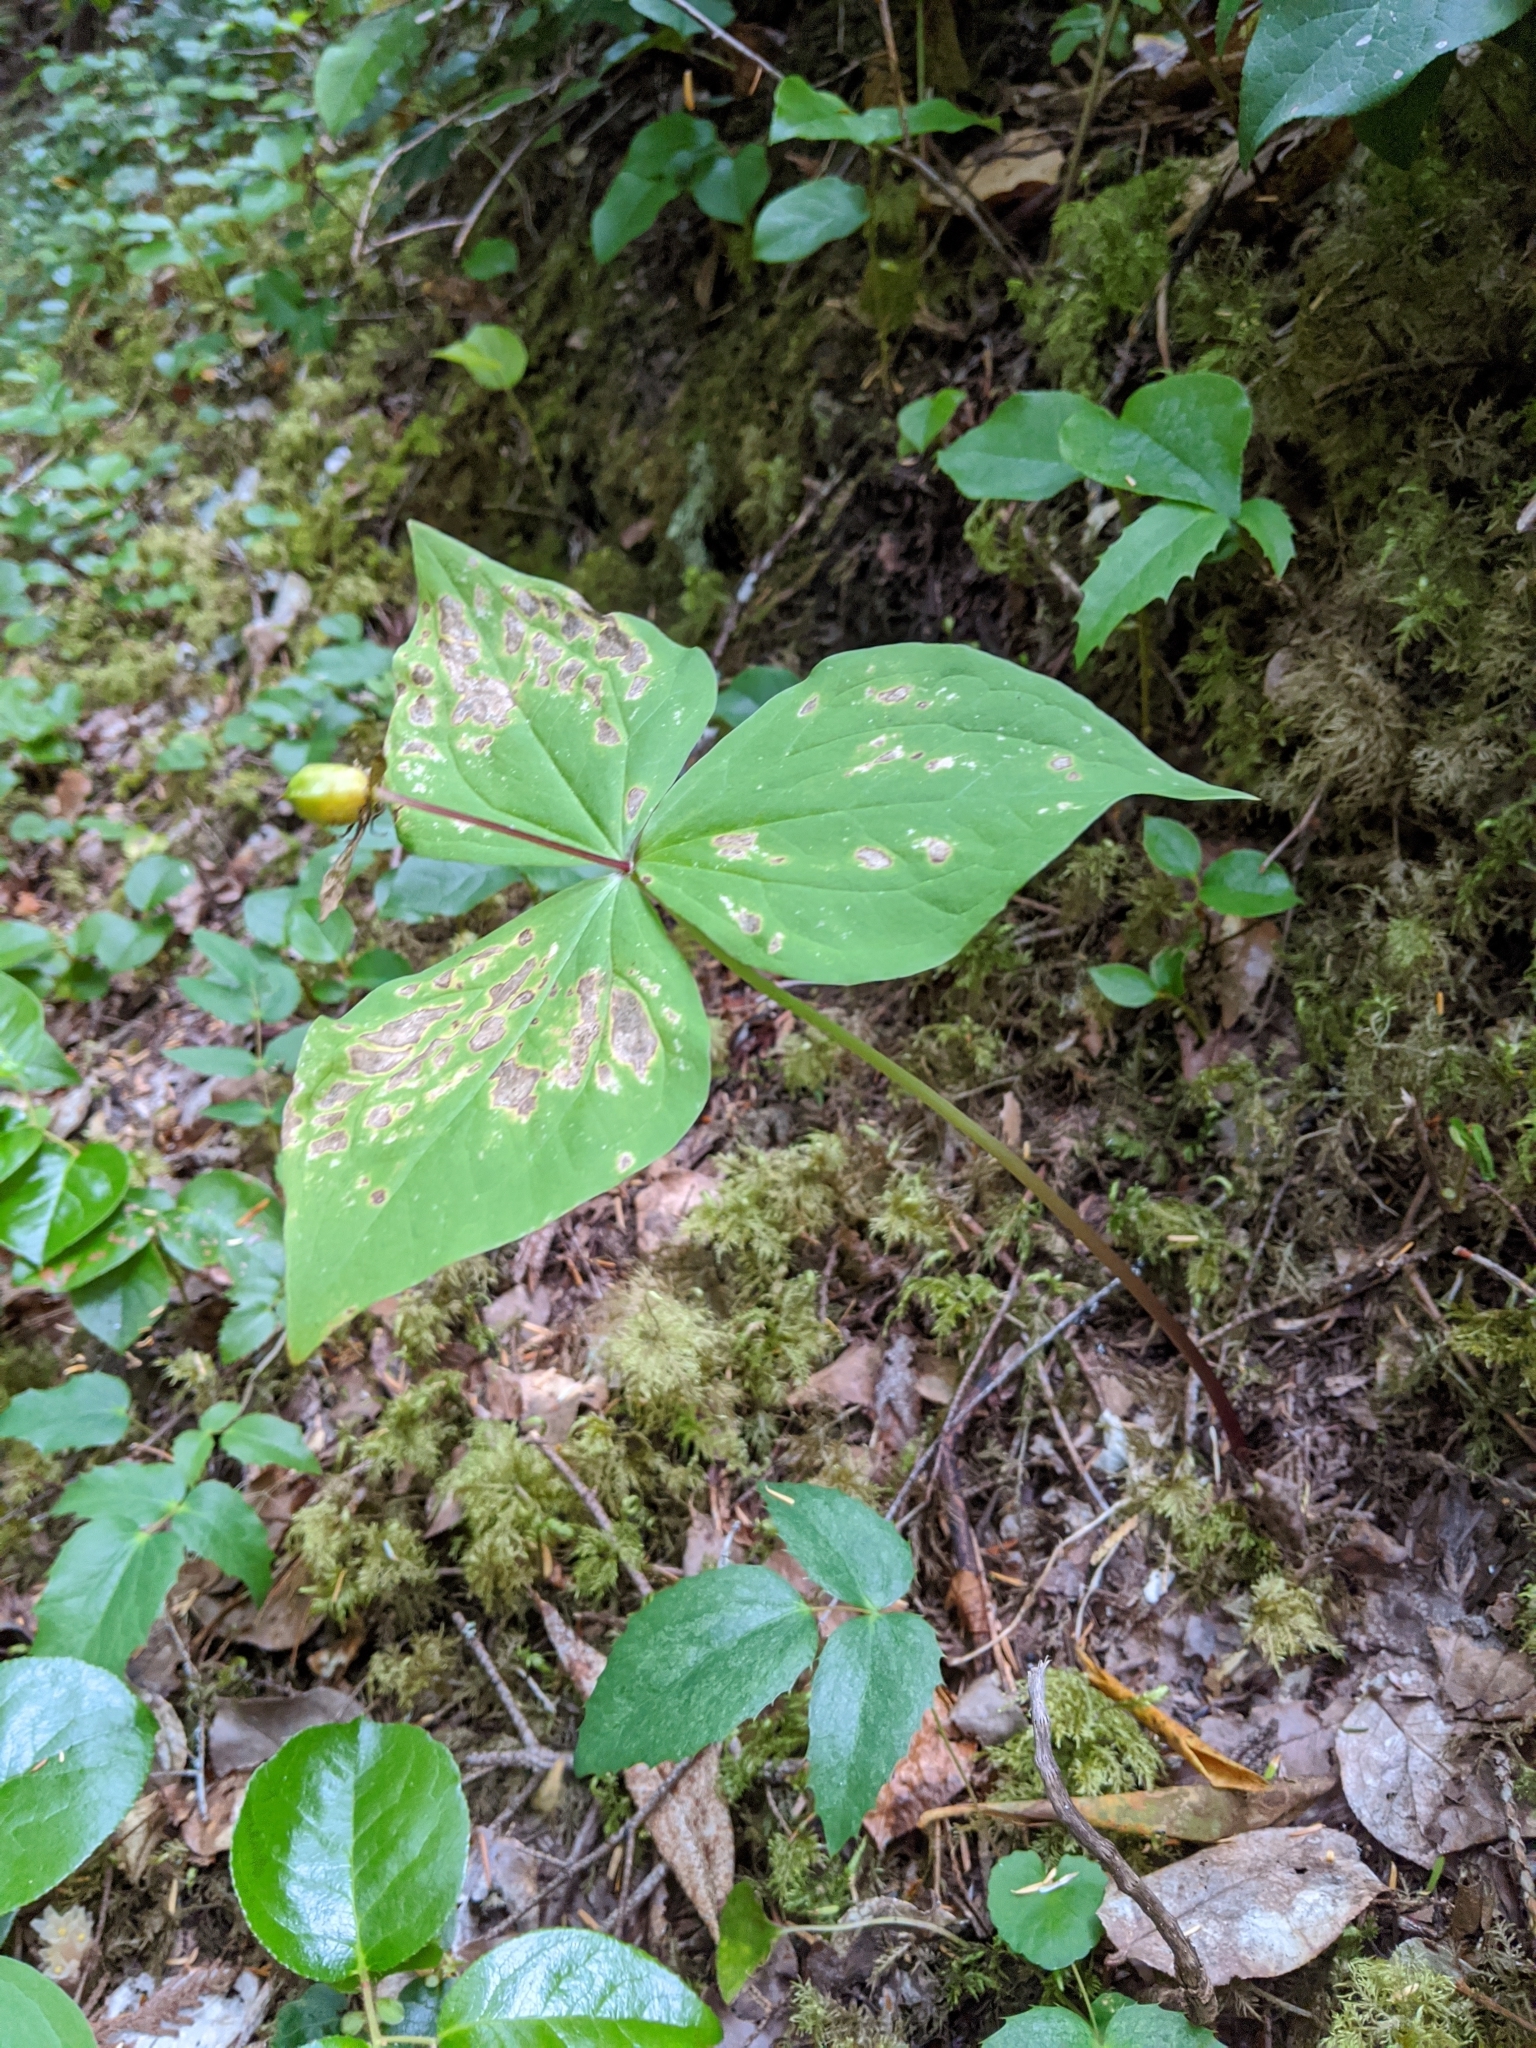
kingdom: Plantae
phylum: Tracheophyta
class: Liliopsida
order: Liliales
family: Melanthiaceae
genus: Trillium
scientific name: Trillium ovatum
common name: Pacific trillium
